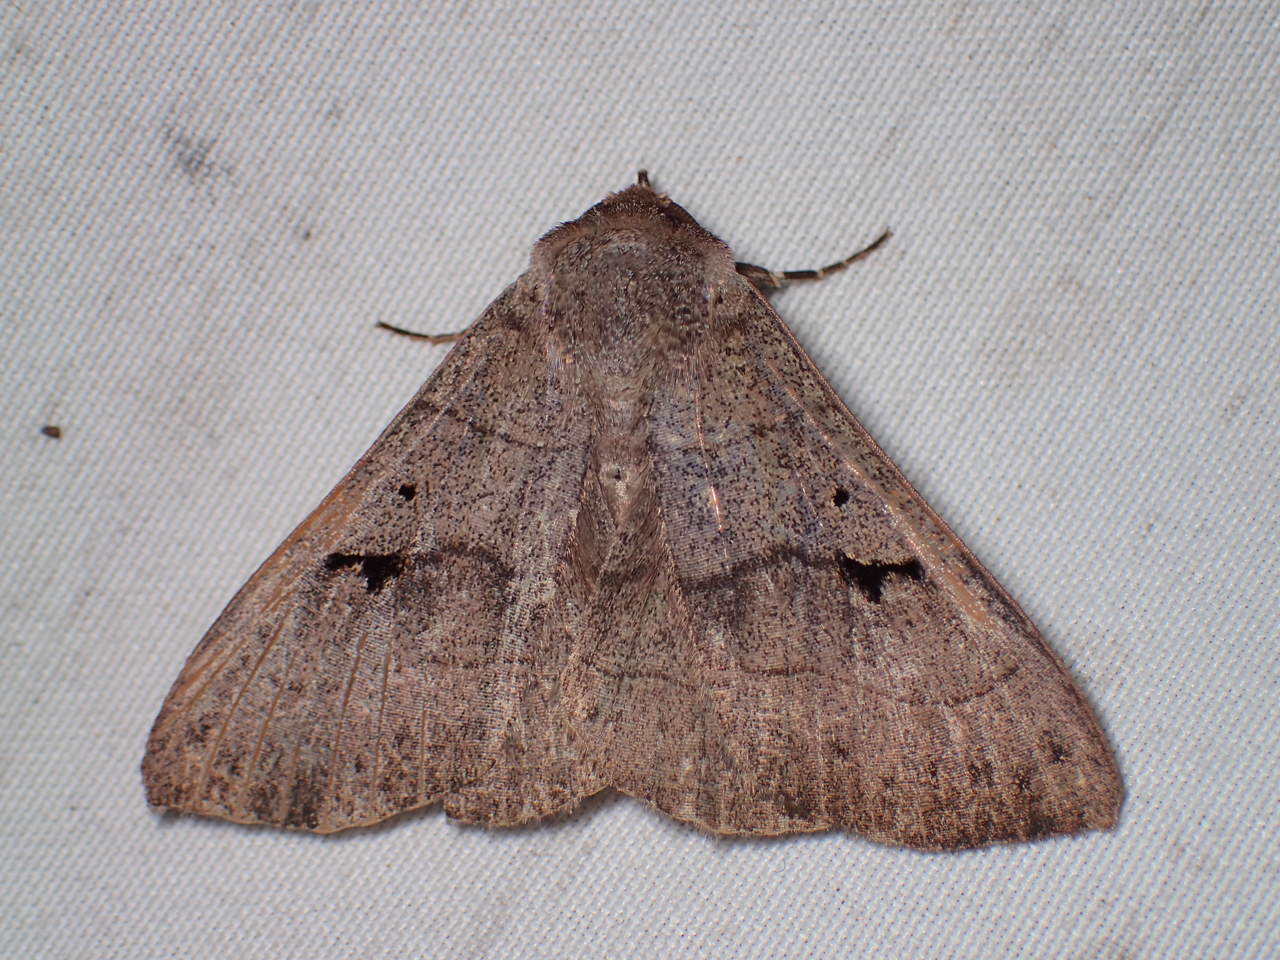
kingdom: Animalia
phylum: Arthropoda
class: Insecta
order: Lepidoptera
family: Erebidae
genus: Panopoda
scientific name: Panopoda carneicosta
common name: Brown panopoda moth
